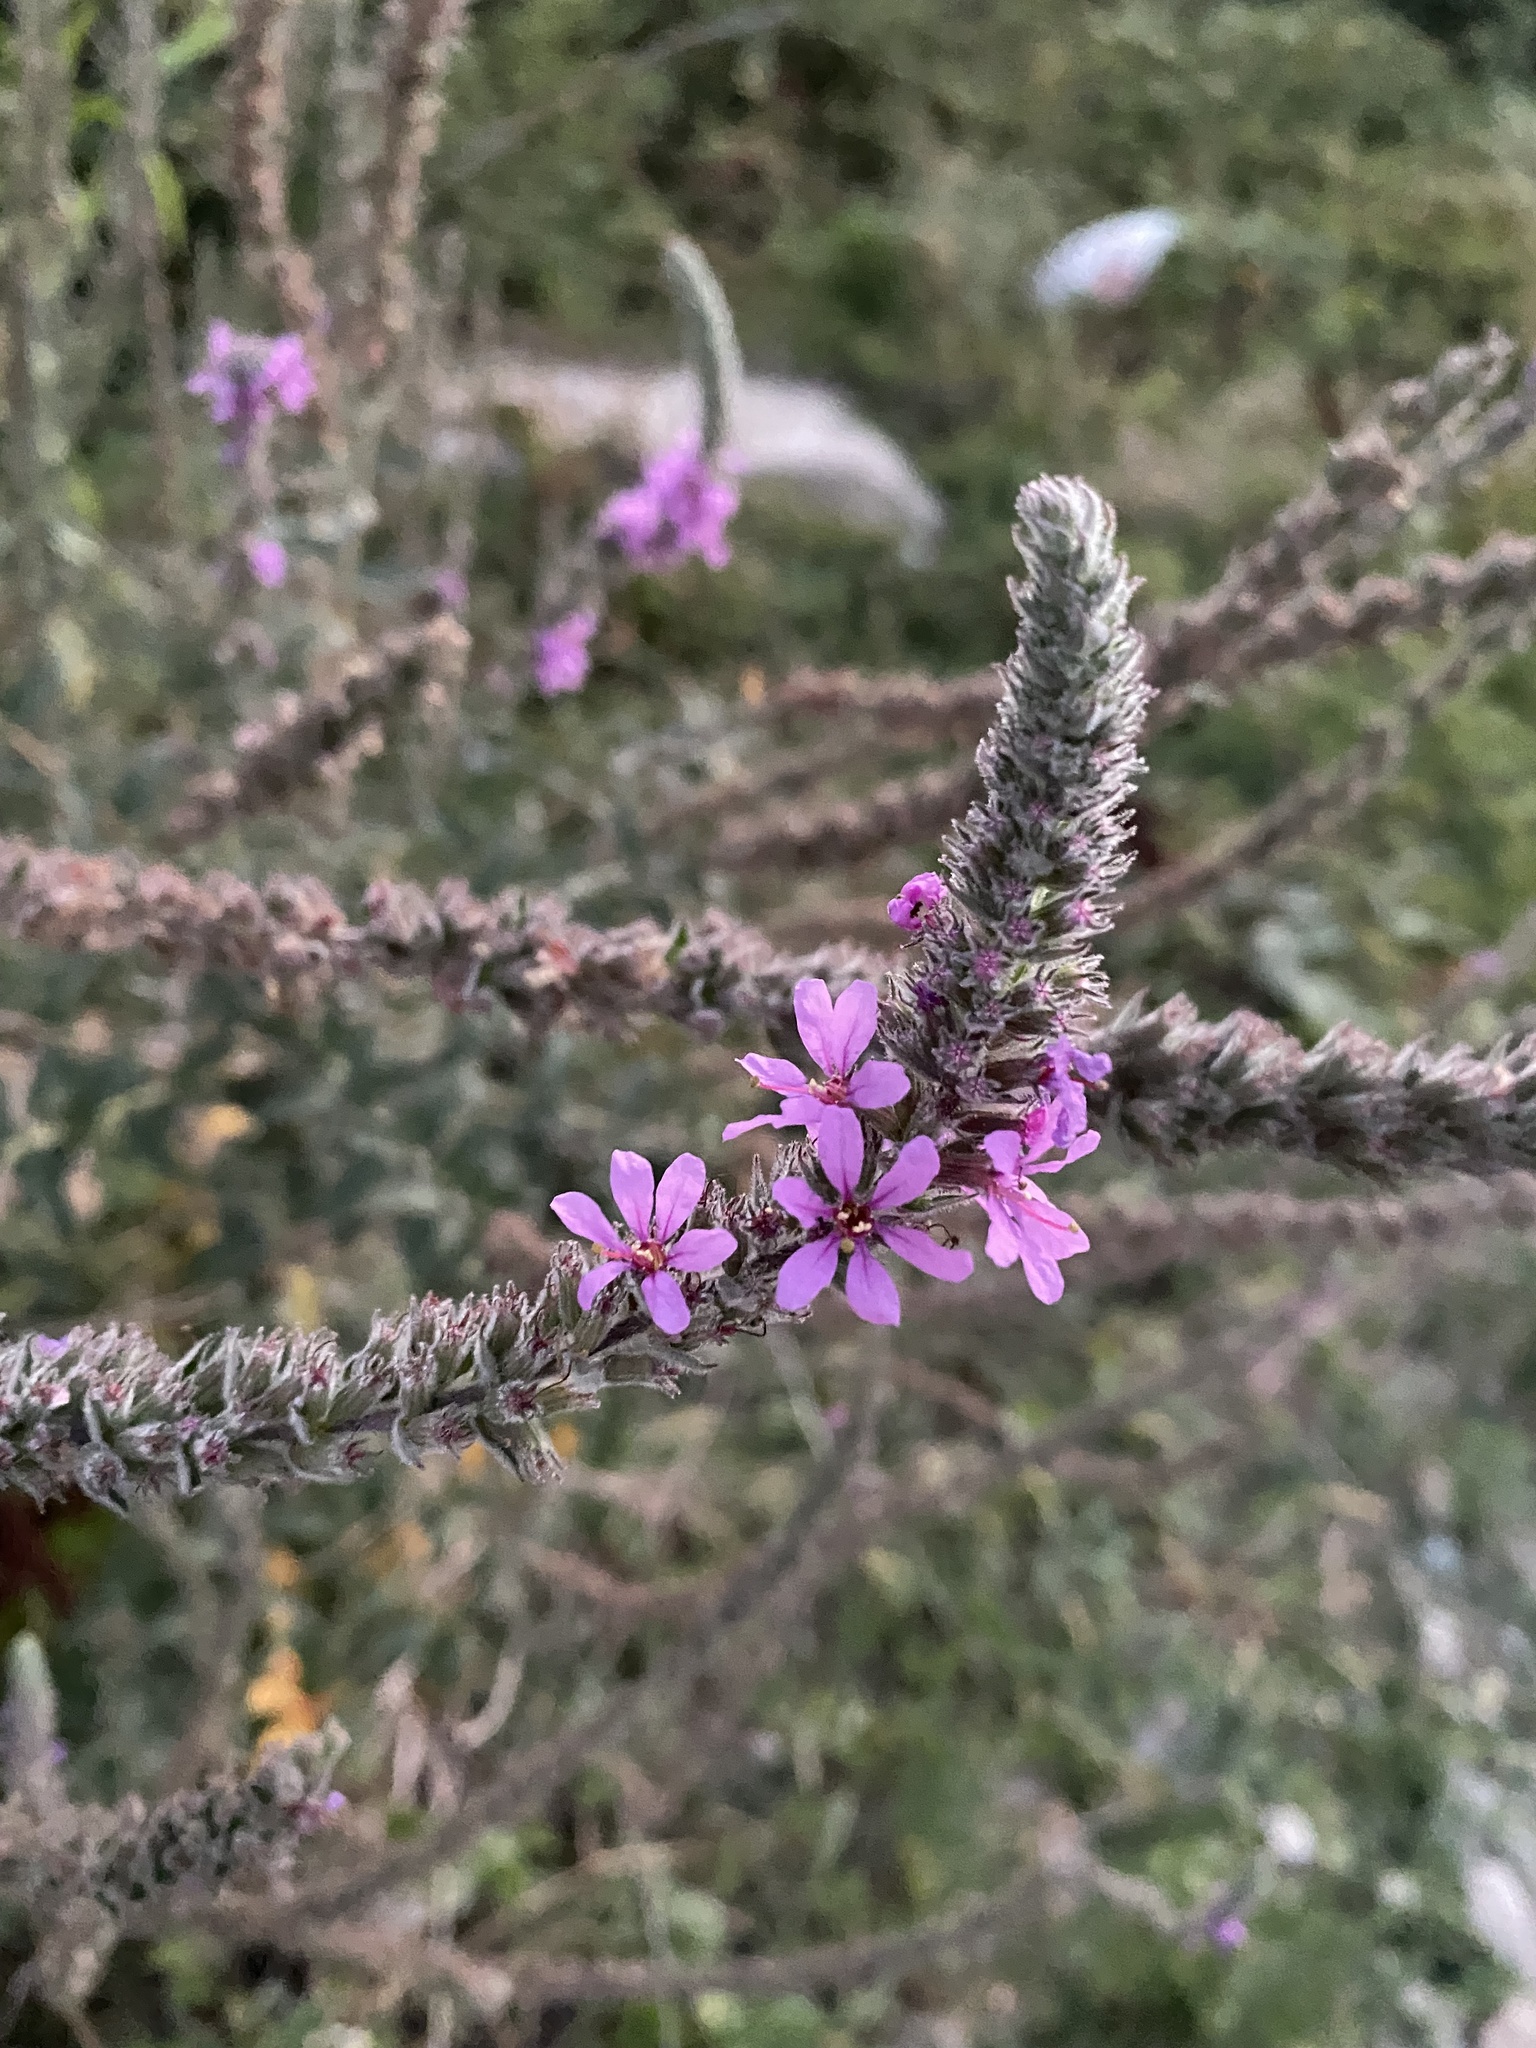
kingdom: Plantae
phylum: Tracheophyta
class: Magnoliopsida
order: Myrtales
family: Lythraceae
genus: Lythrum
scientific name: Lythrum salicaria
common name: Purple loosestrife
